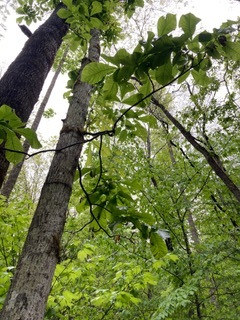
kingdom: Plantae
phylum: Tracheophyta
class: Magnoliopsida
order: Fagales
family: Juglandaceae
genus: Carya
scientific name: Carya glabra
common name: Pignut hickory
